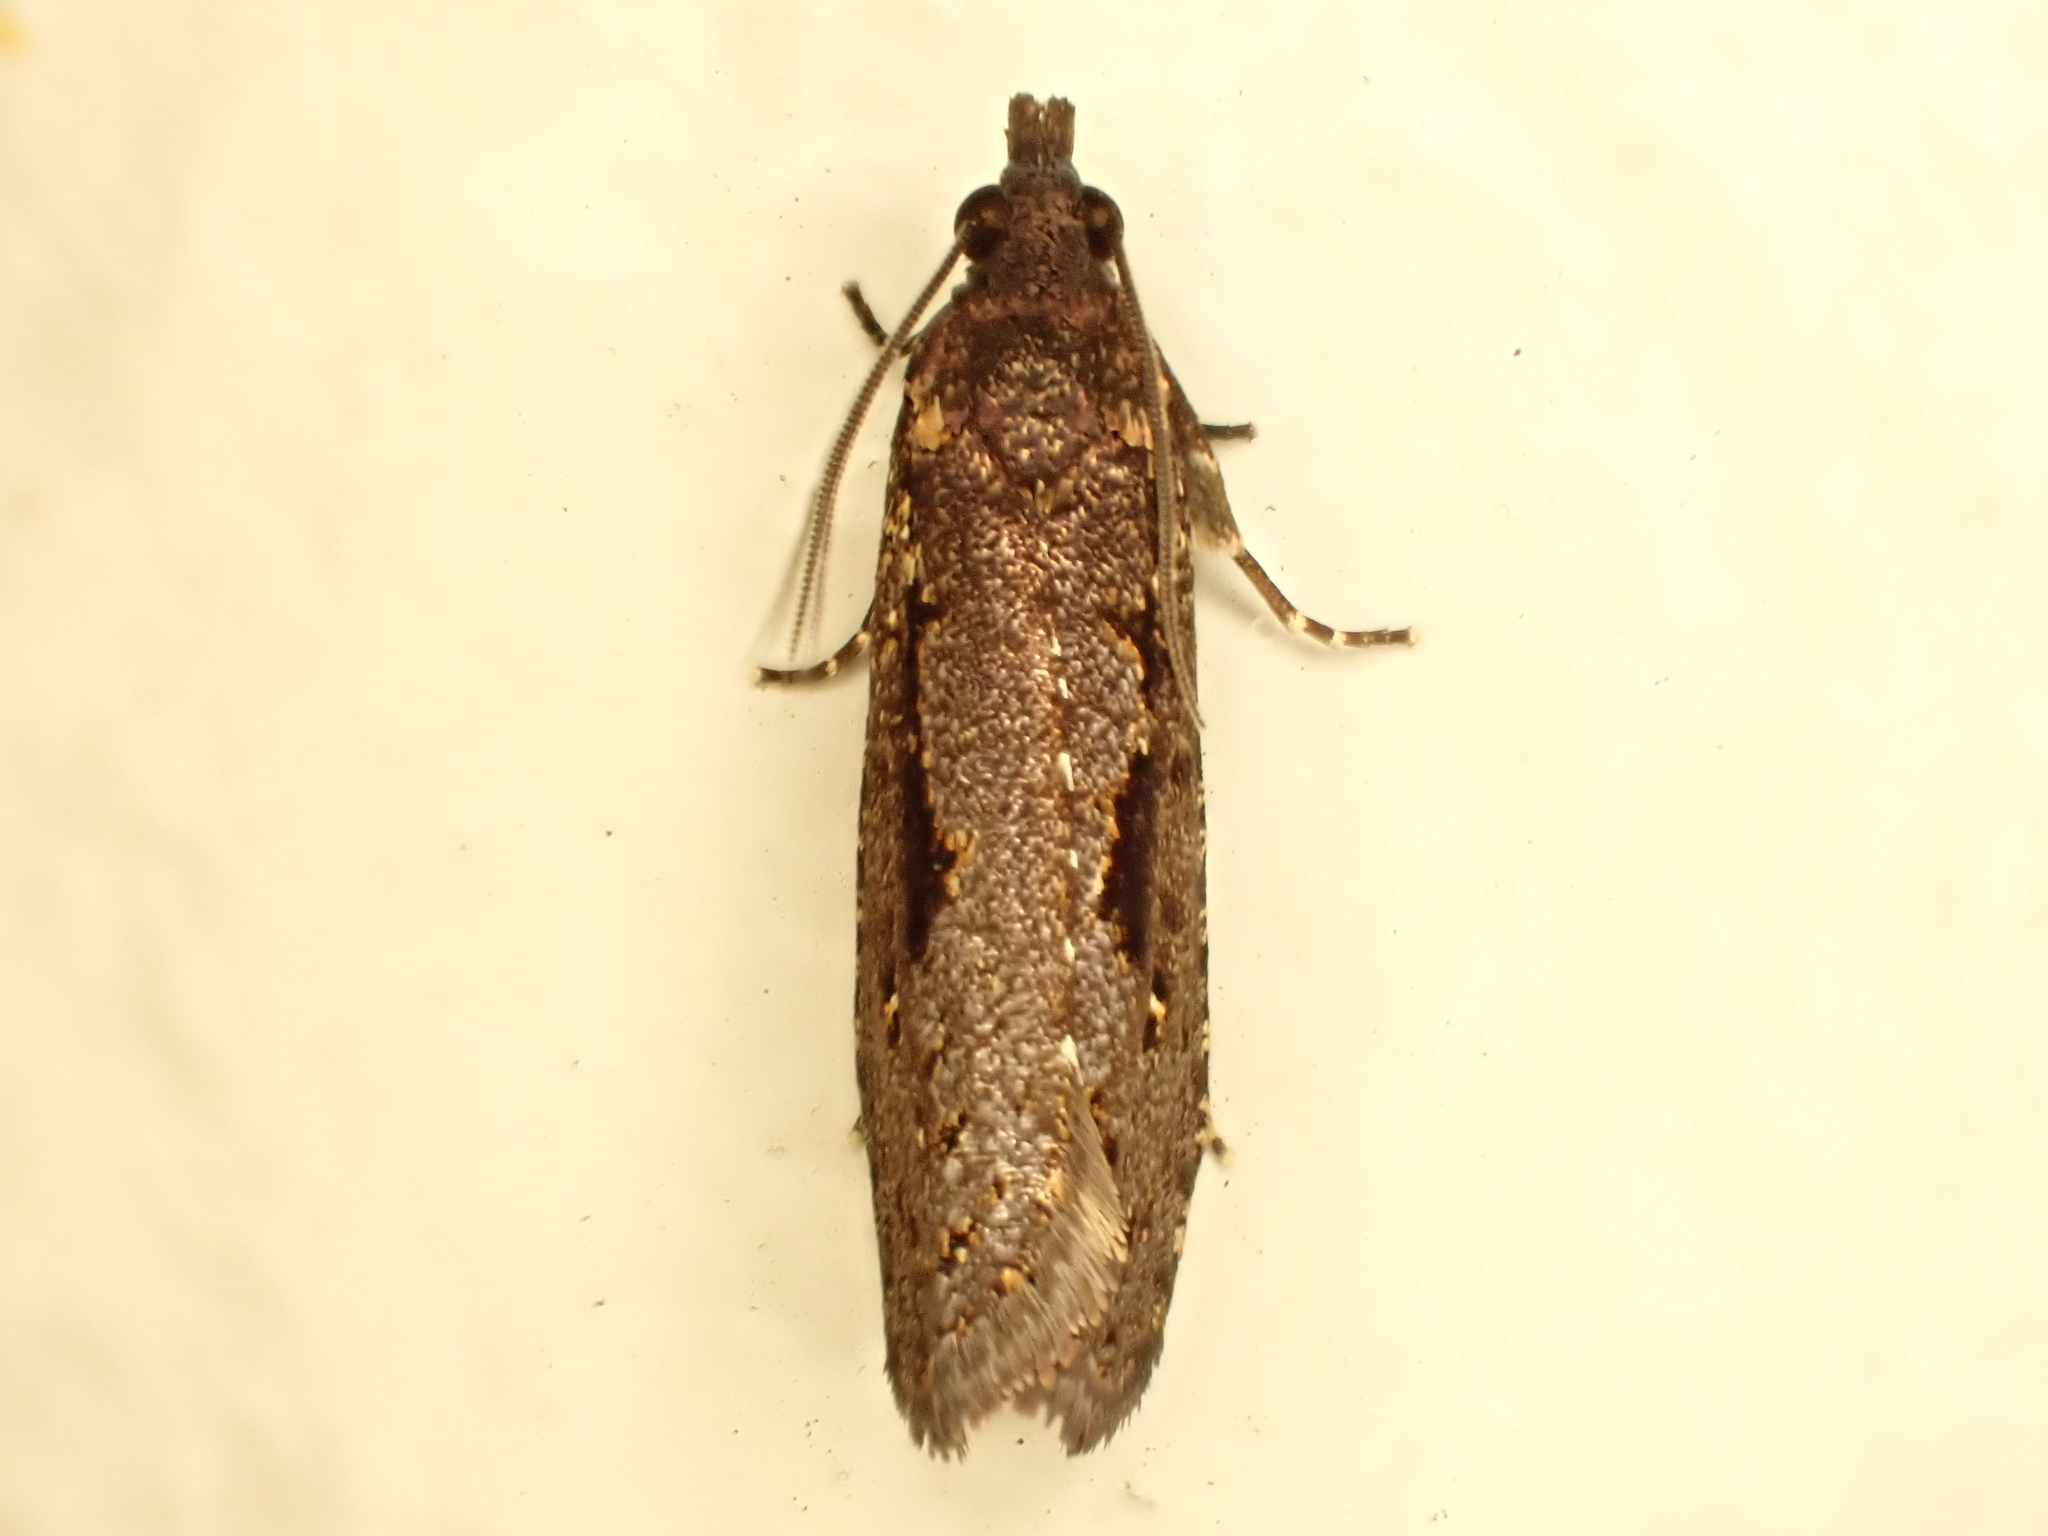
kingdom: Animalia
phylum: Arthropoda
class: Insecta
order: Lepidoptera
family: Tortricidae
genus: Cryptaspasma
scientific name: Cryptaspasma querula
